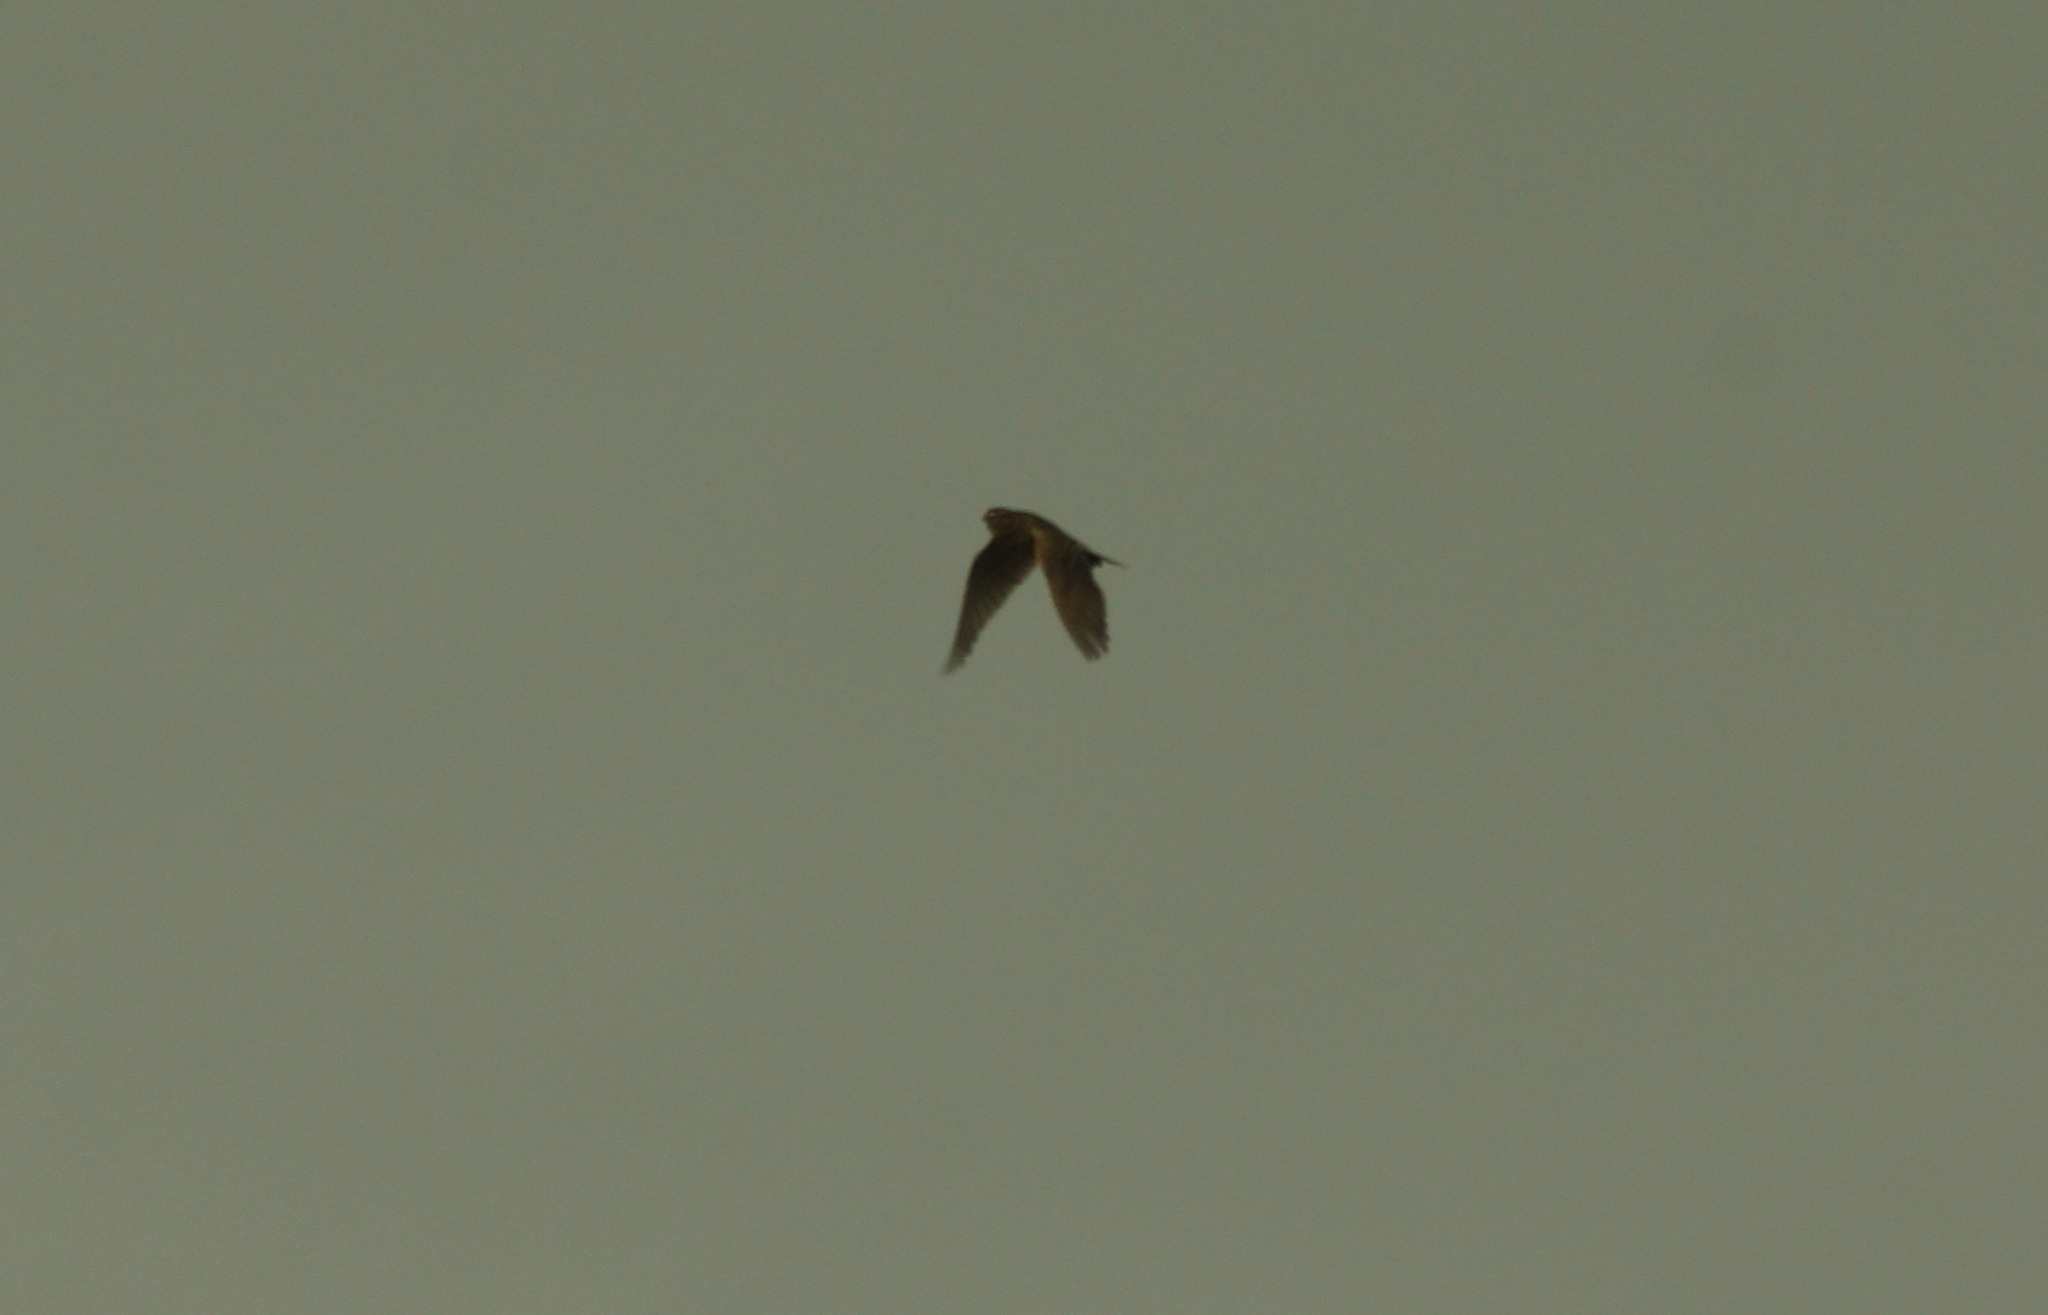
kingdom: Animalia
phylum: Chordata
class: Aves
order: Passeriformes
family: Alaudidae
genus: Alauda
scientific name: Alauda arvensis
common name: Eurasian skylark
